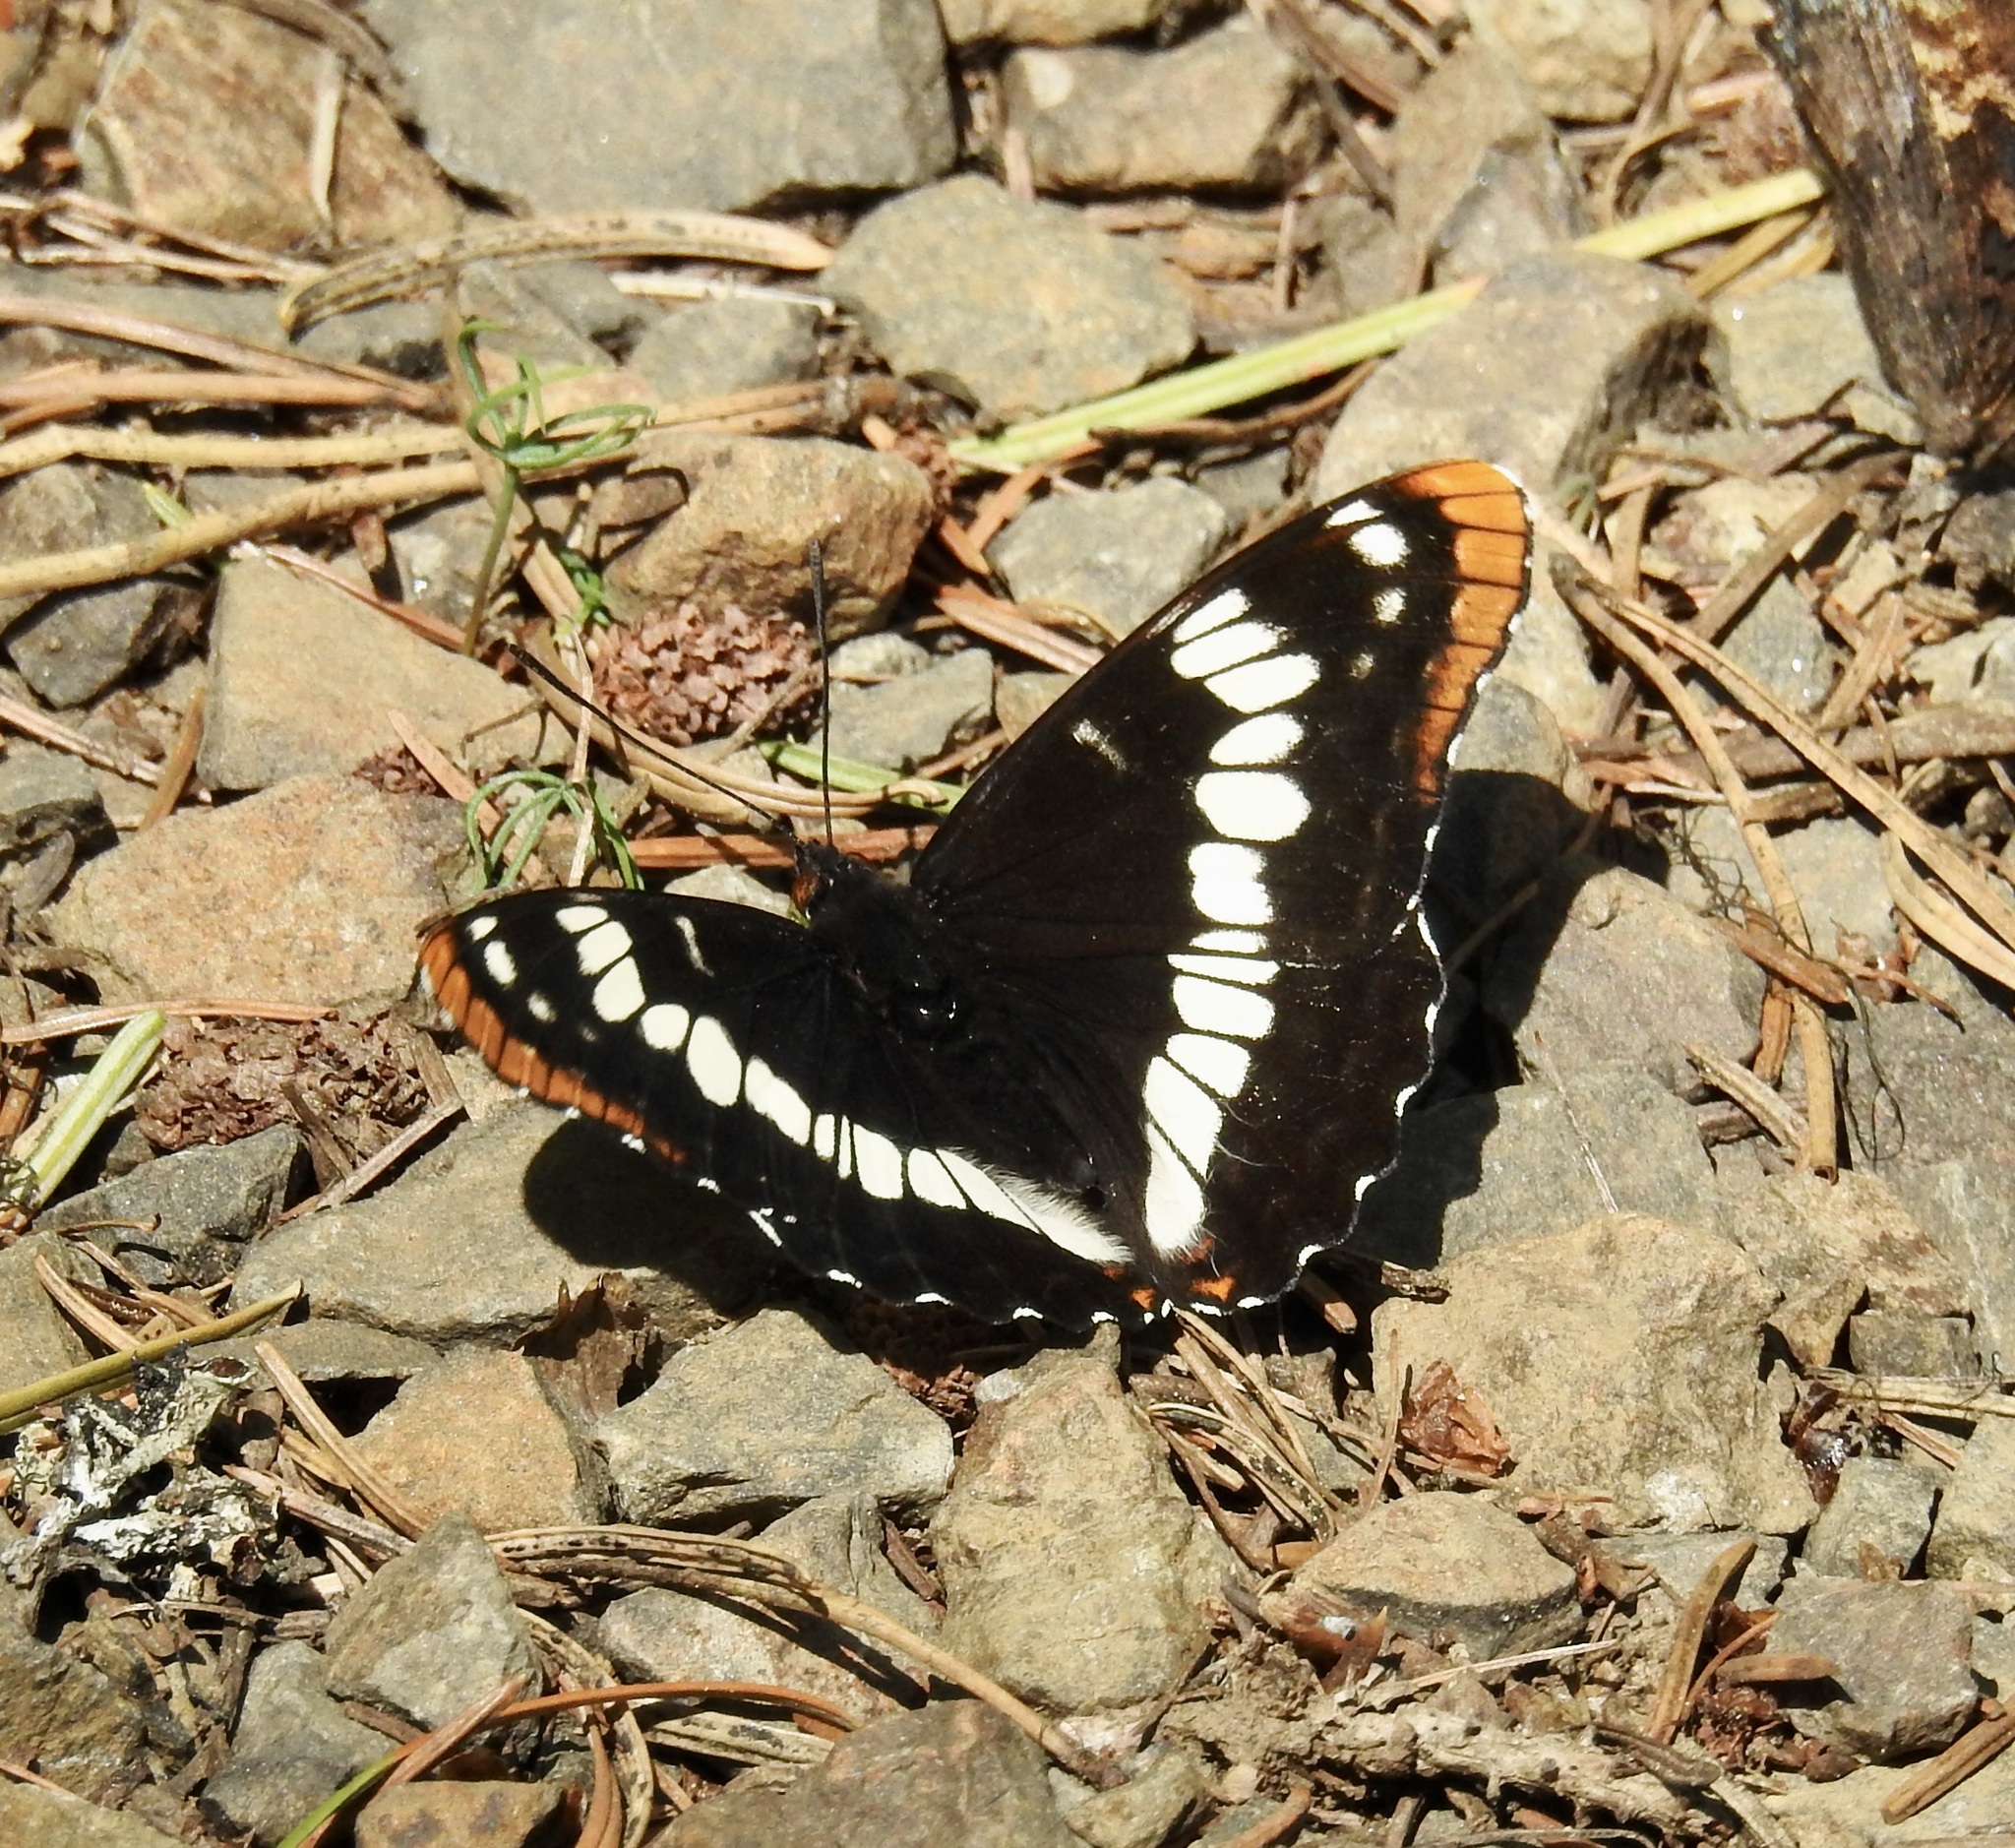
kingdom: Animalia
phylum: Arthropoda
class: Insecta
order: Lepidoptera
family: Nymphalidae
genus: Limenitis
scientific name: Limenitis lorquini
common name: Lorquin's admiral
